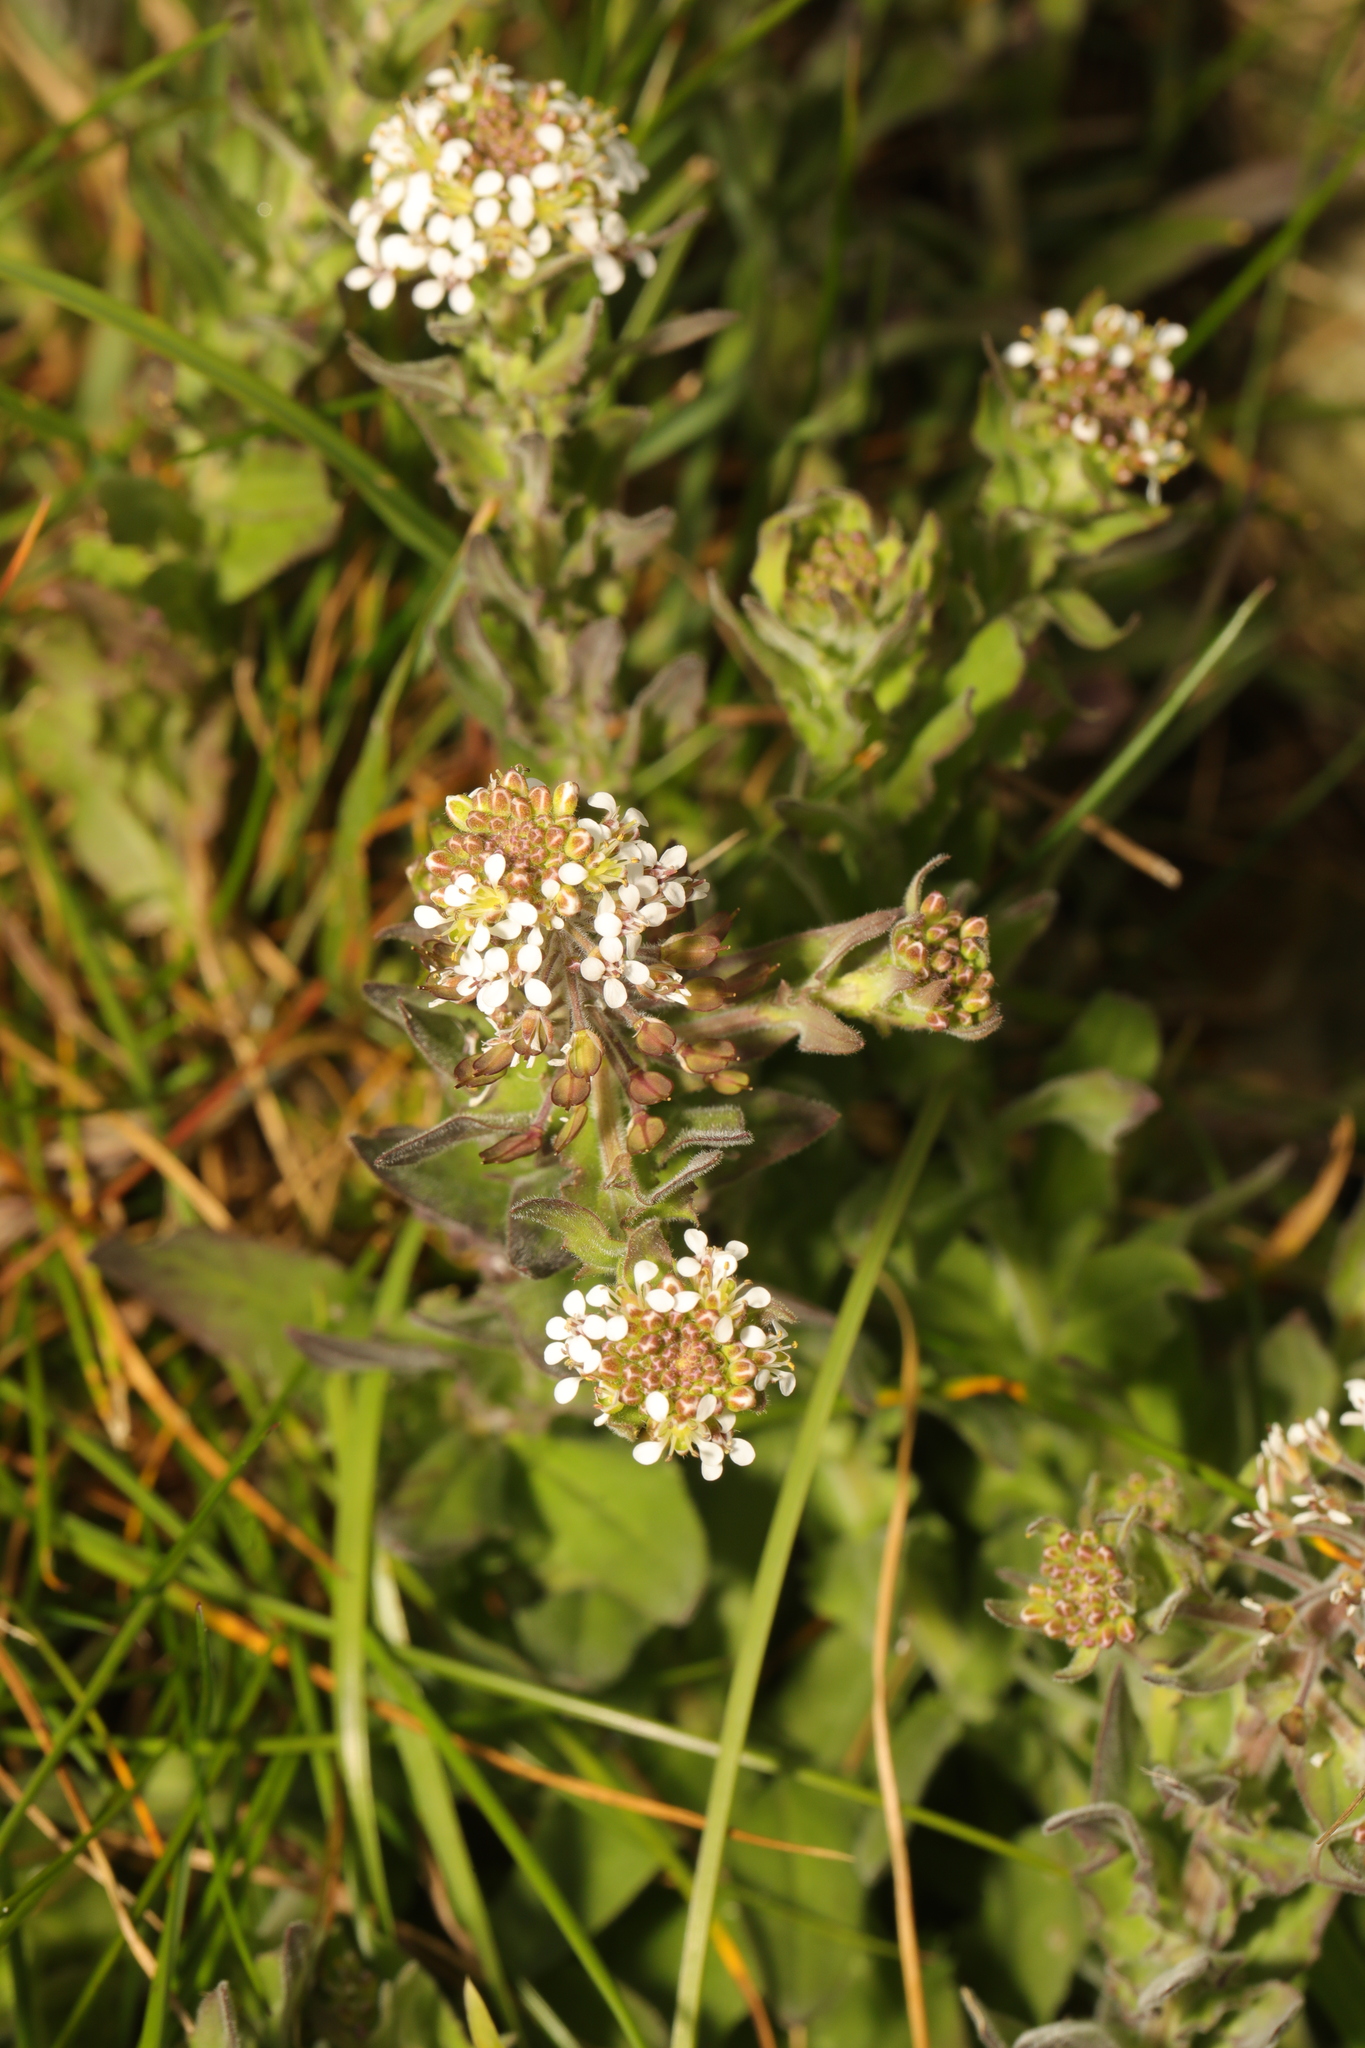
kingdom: Plantae
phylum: Tracheophyta
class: Magnoliopsida
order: Brassicales
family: Brassicaceae
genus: Lepidium
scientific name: Lepidium heterophyllum
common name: Smith's pepperwort
